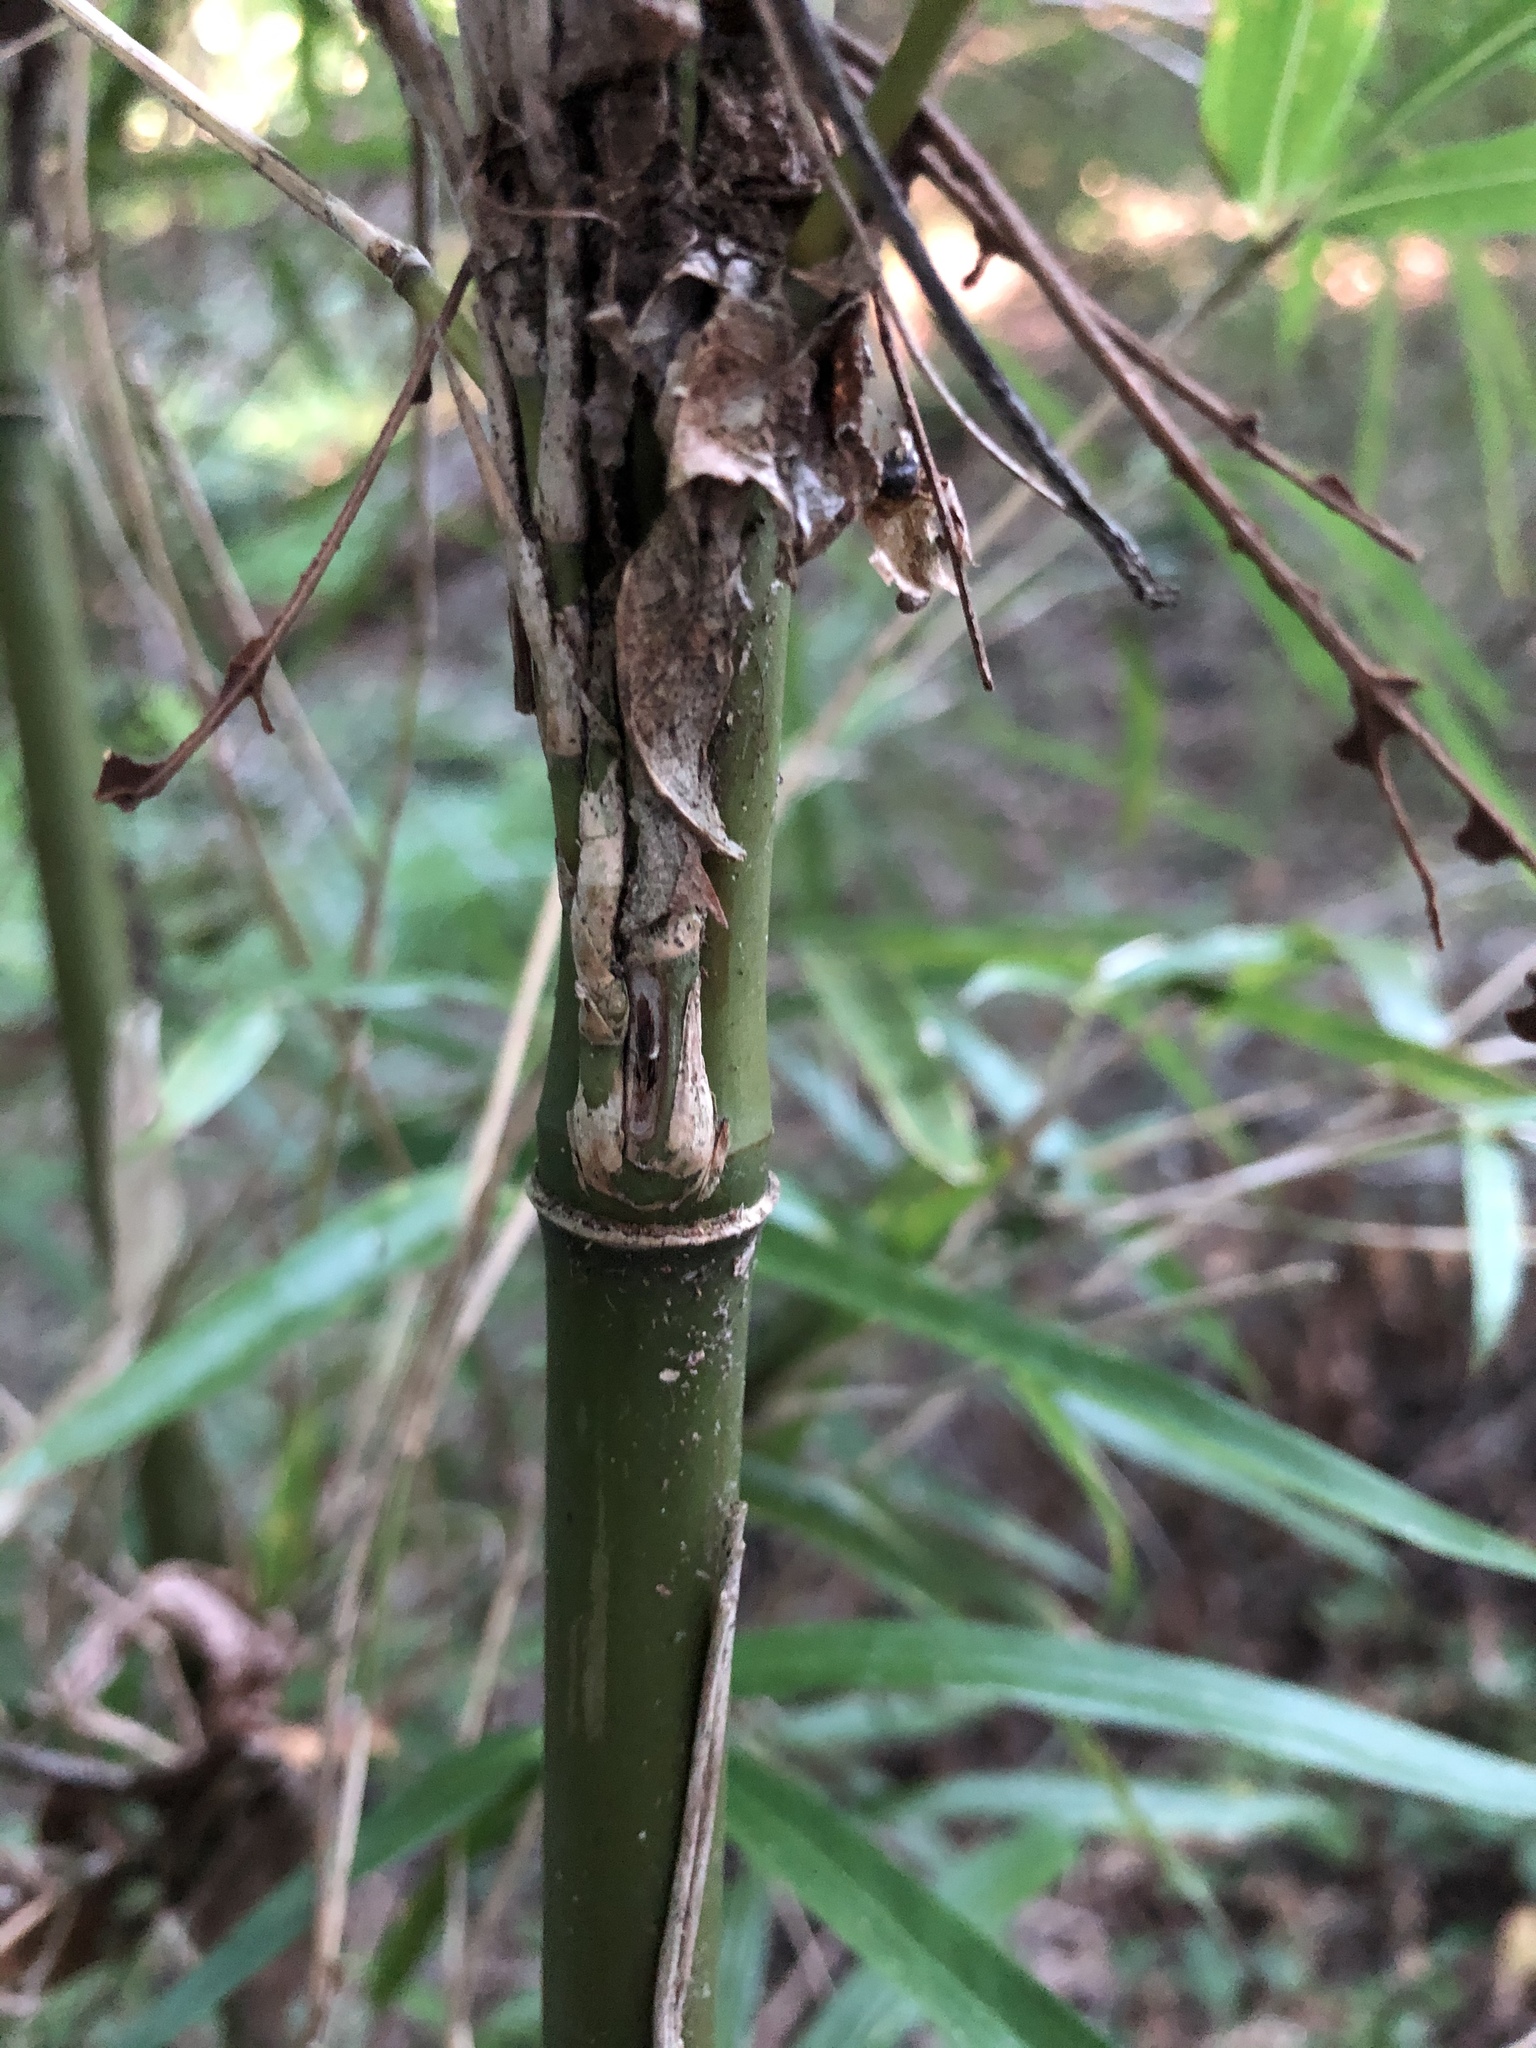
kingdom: Plantae
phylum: Tracheophyta
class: Liliopsida
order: Poales
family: Poaceae
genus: Arundinaria
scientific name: Arundinaria gigantea
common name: Giant cane
